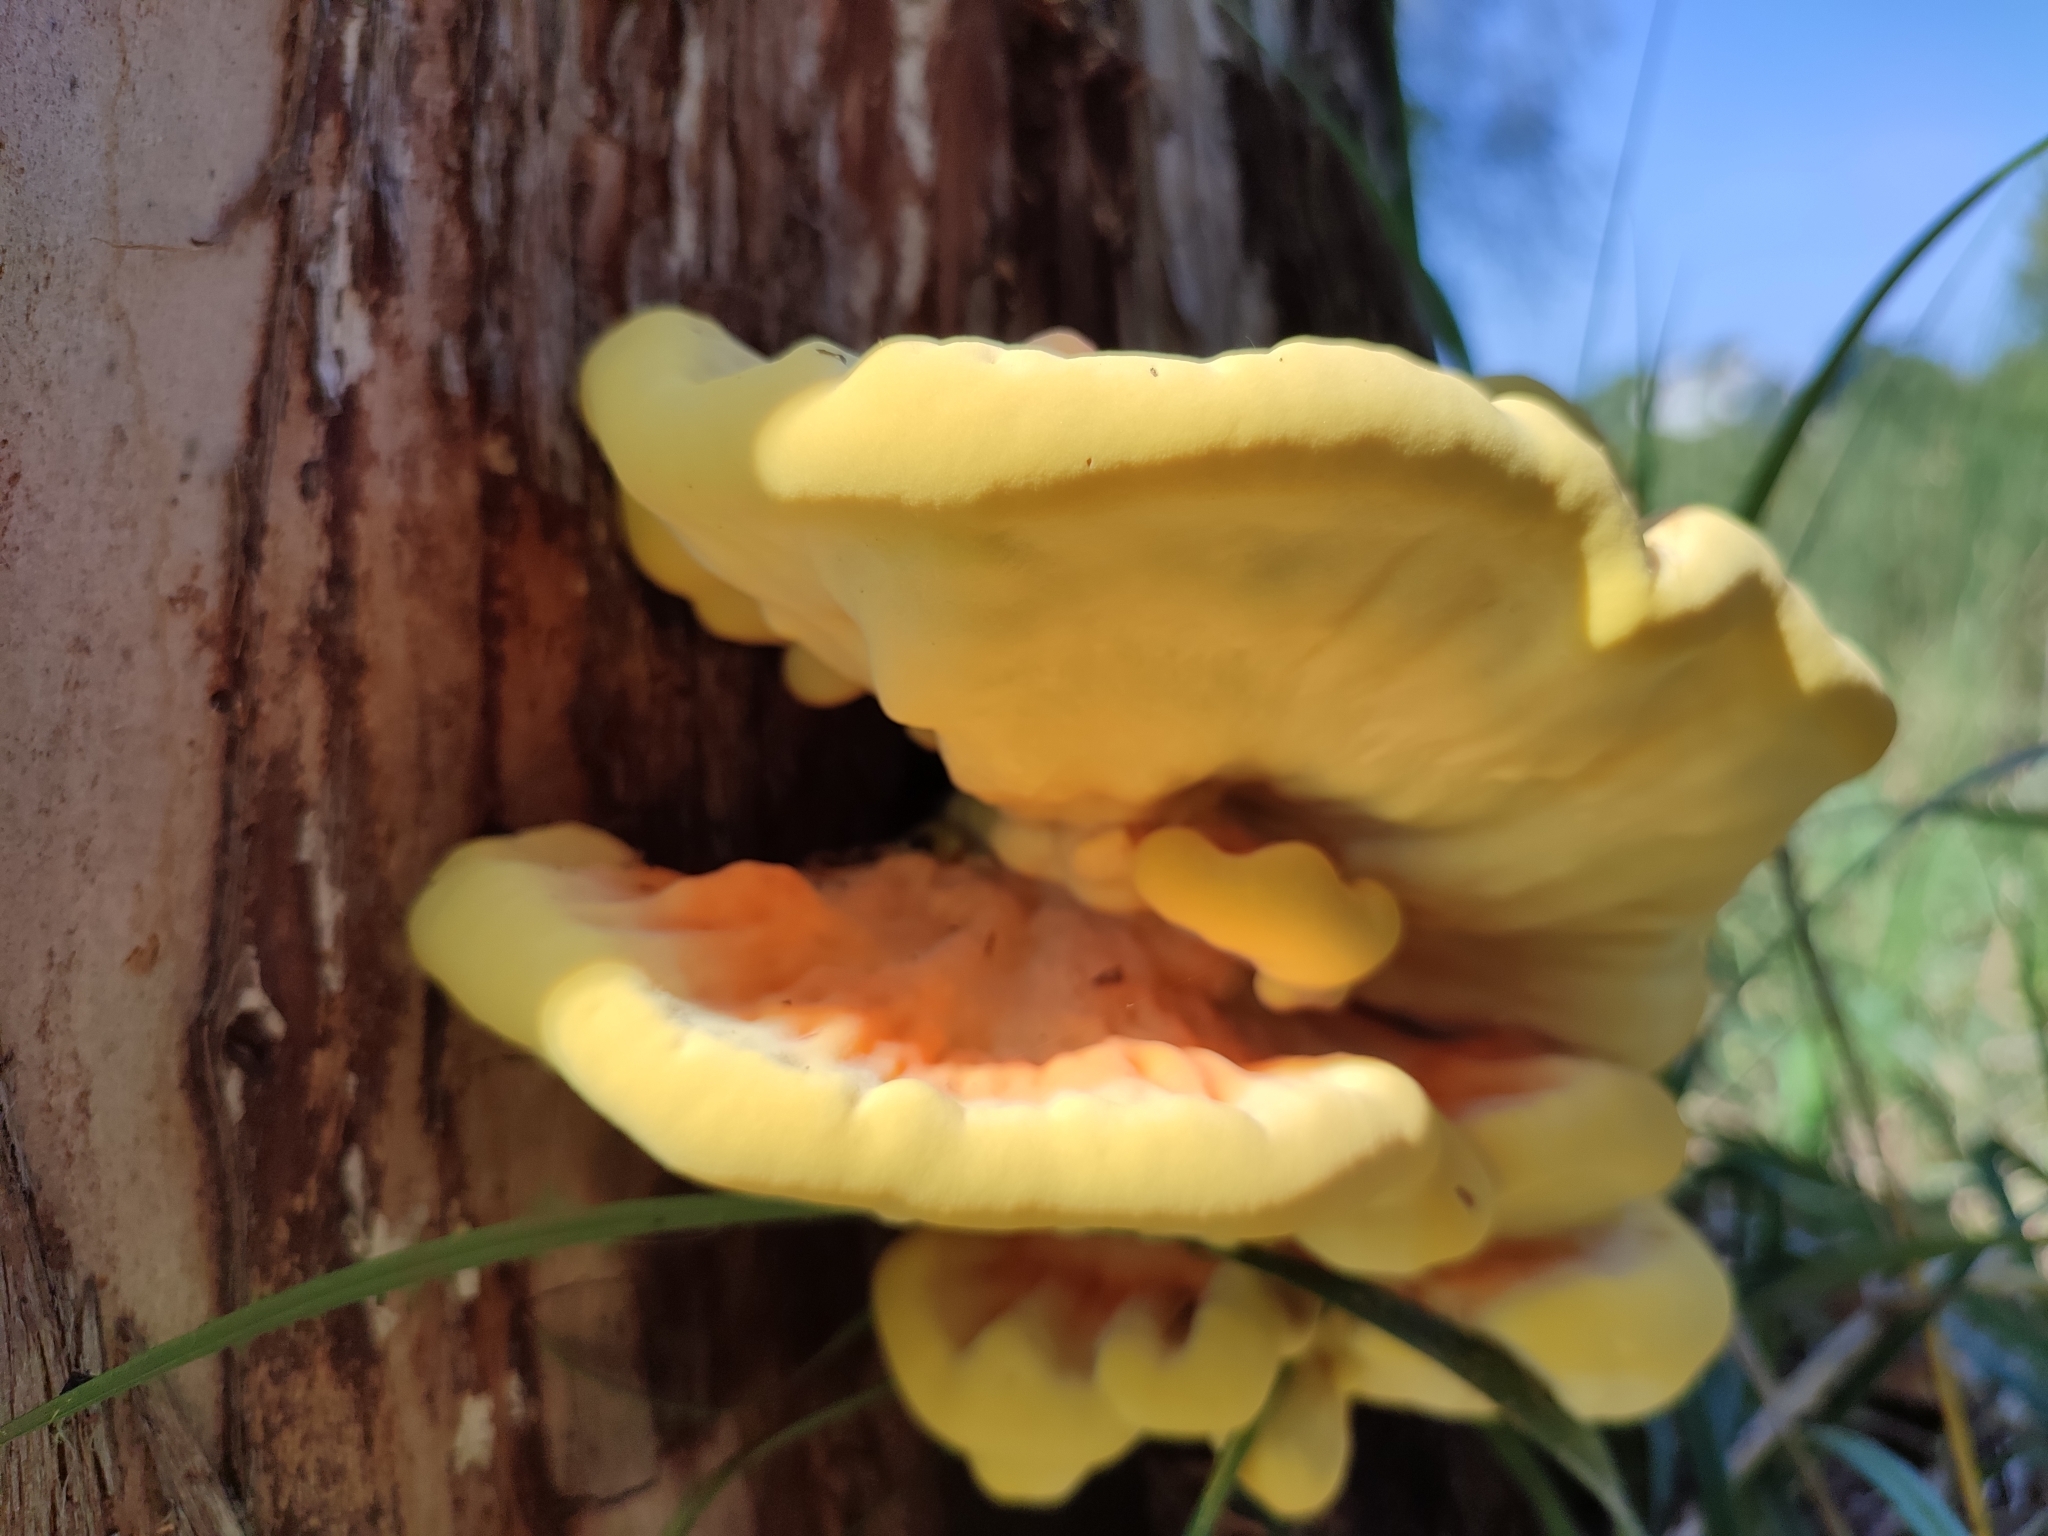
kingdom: Fungi
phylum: Basidiomycota
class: Agaricomycetes
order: Polyporales
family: Laetiporaceae
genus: Laetiporus
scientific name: Laetiporus sulphureus
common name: Chicken of the woods
